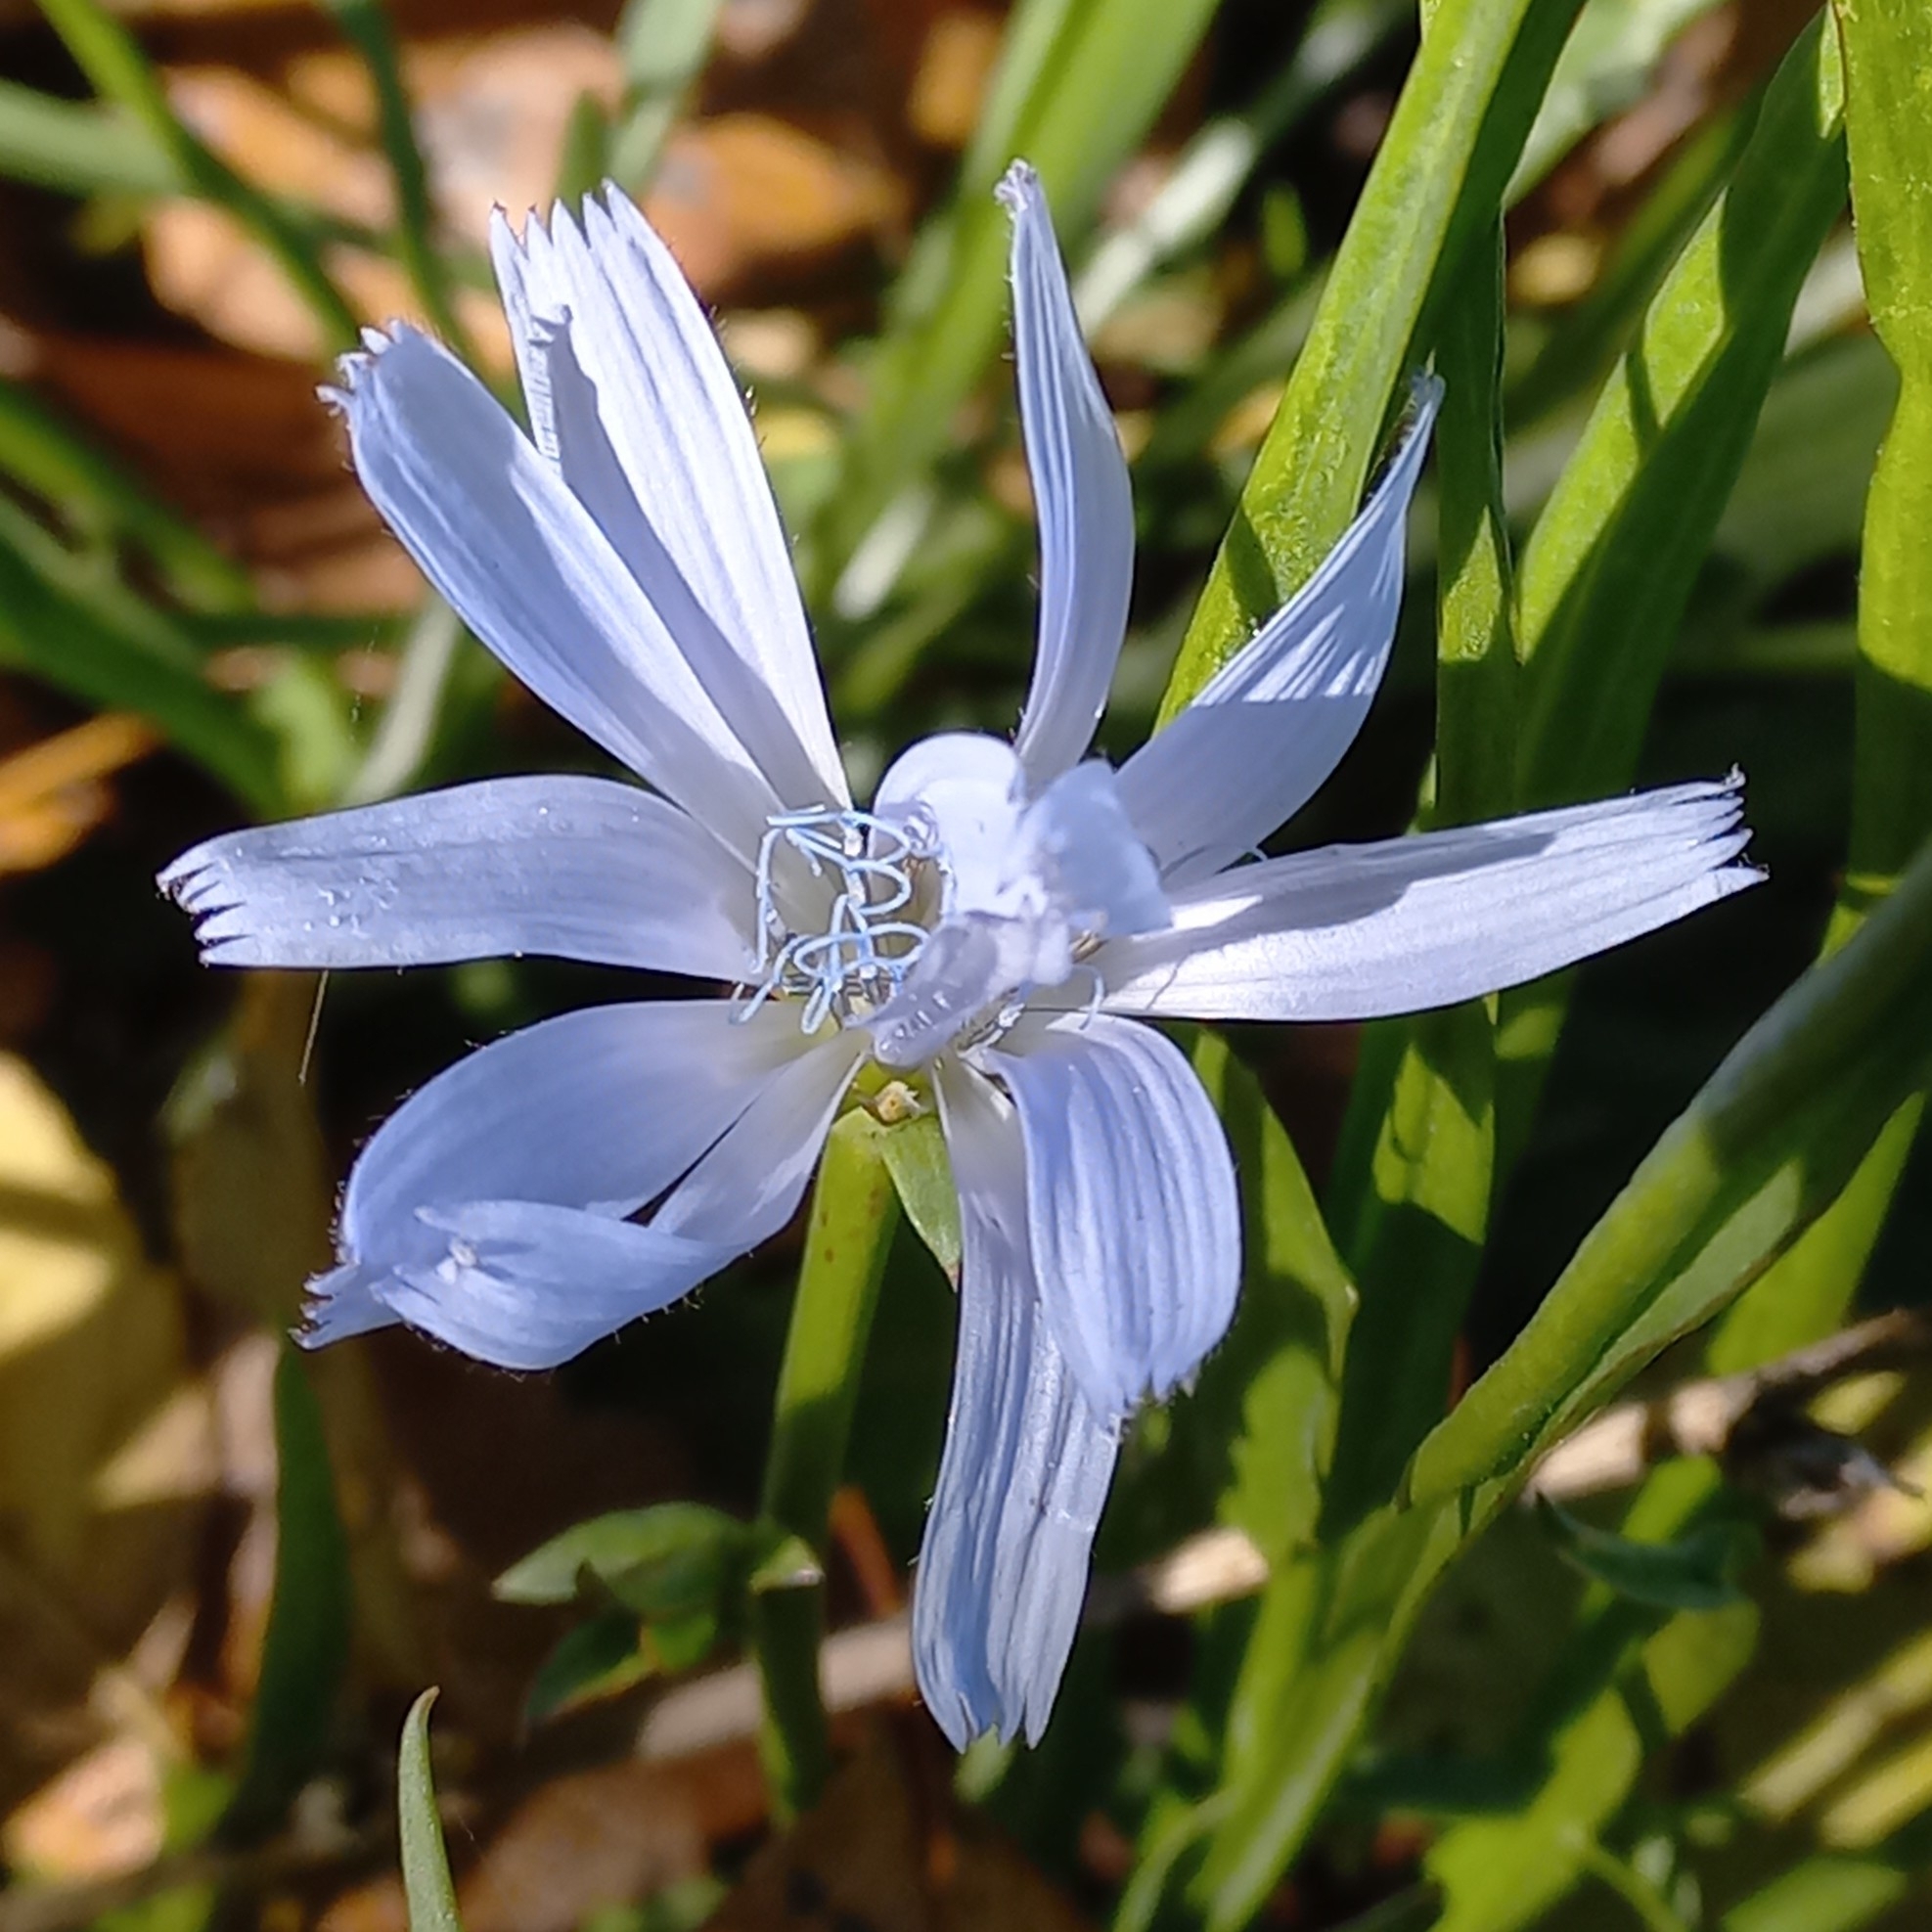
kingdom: Plantae
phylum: Tracheophyta
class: Magnoliopsida
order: Asterales
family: Asteraceae
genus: Cichorium
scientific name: Cichorium intybus
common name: Chicory
